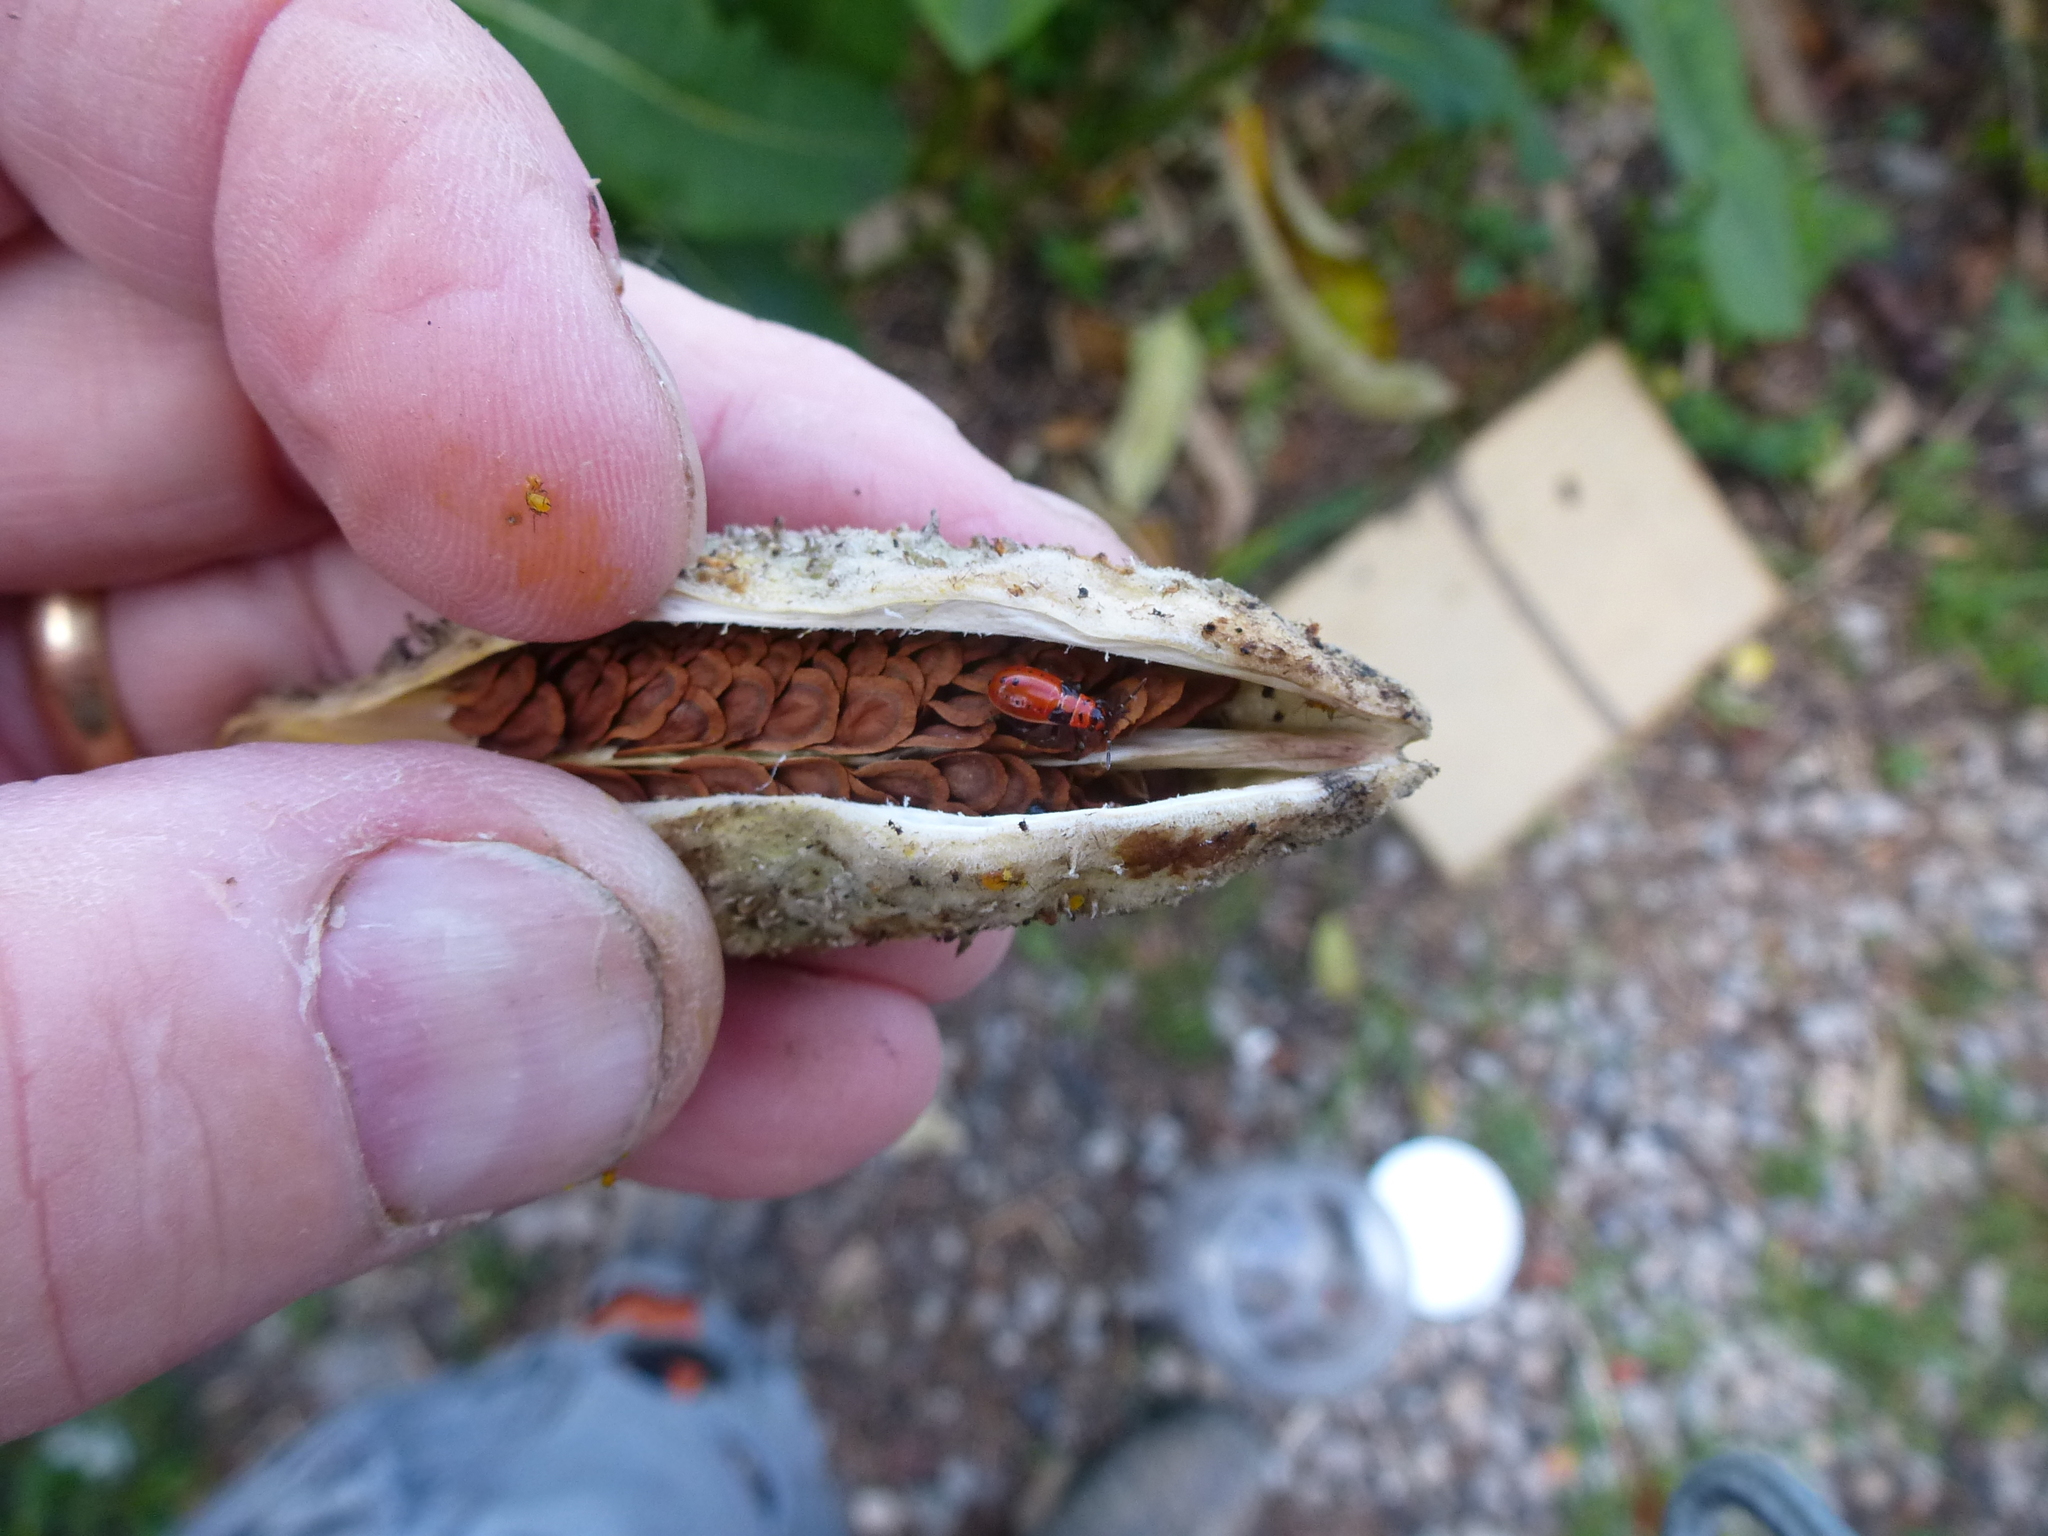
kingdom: Animalia
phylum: Arthropoda
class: Insecta
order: Hemiptera
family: Lygaeidae
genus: Lygaeus
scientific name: Lygaeus kalmii
